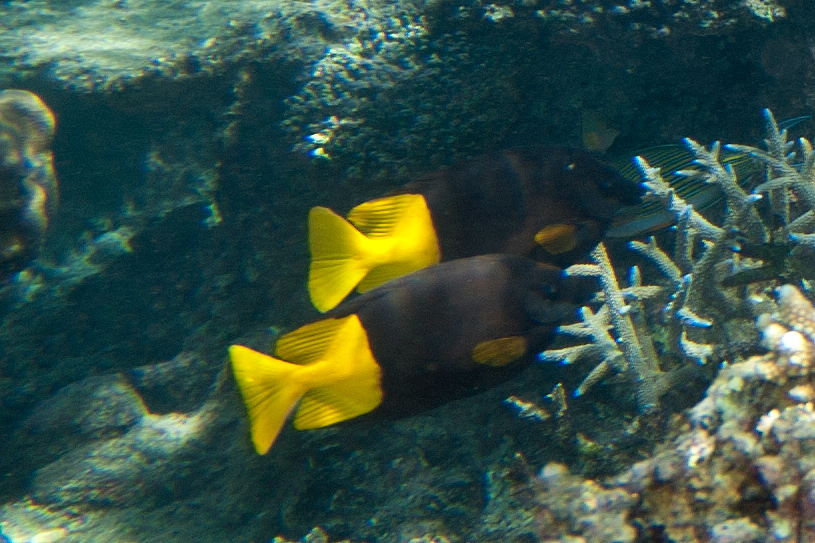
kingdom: Animalia
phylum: Chordata
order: Perciformes
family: Siganidae
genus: Siganus
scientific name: Siganus uspi
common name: Bicolored foxface
